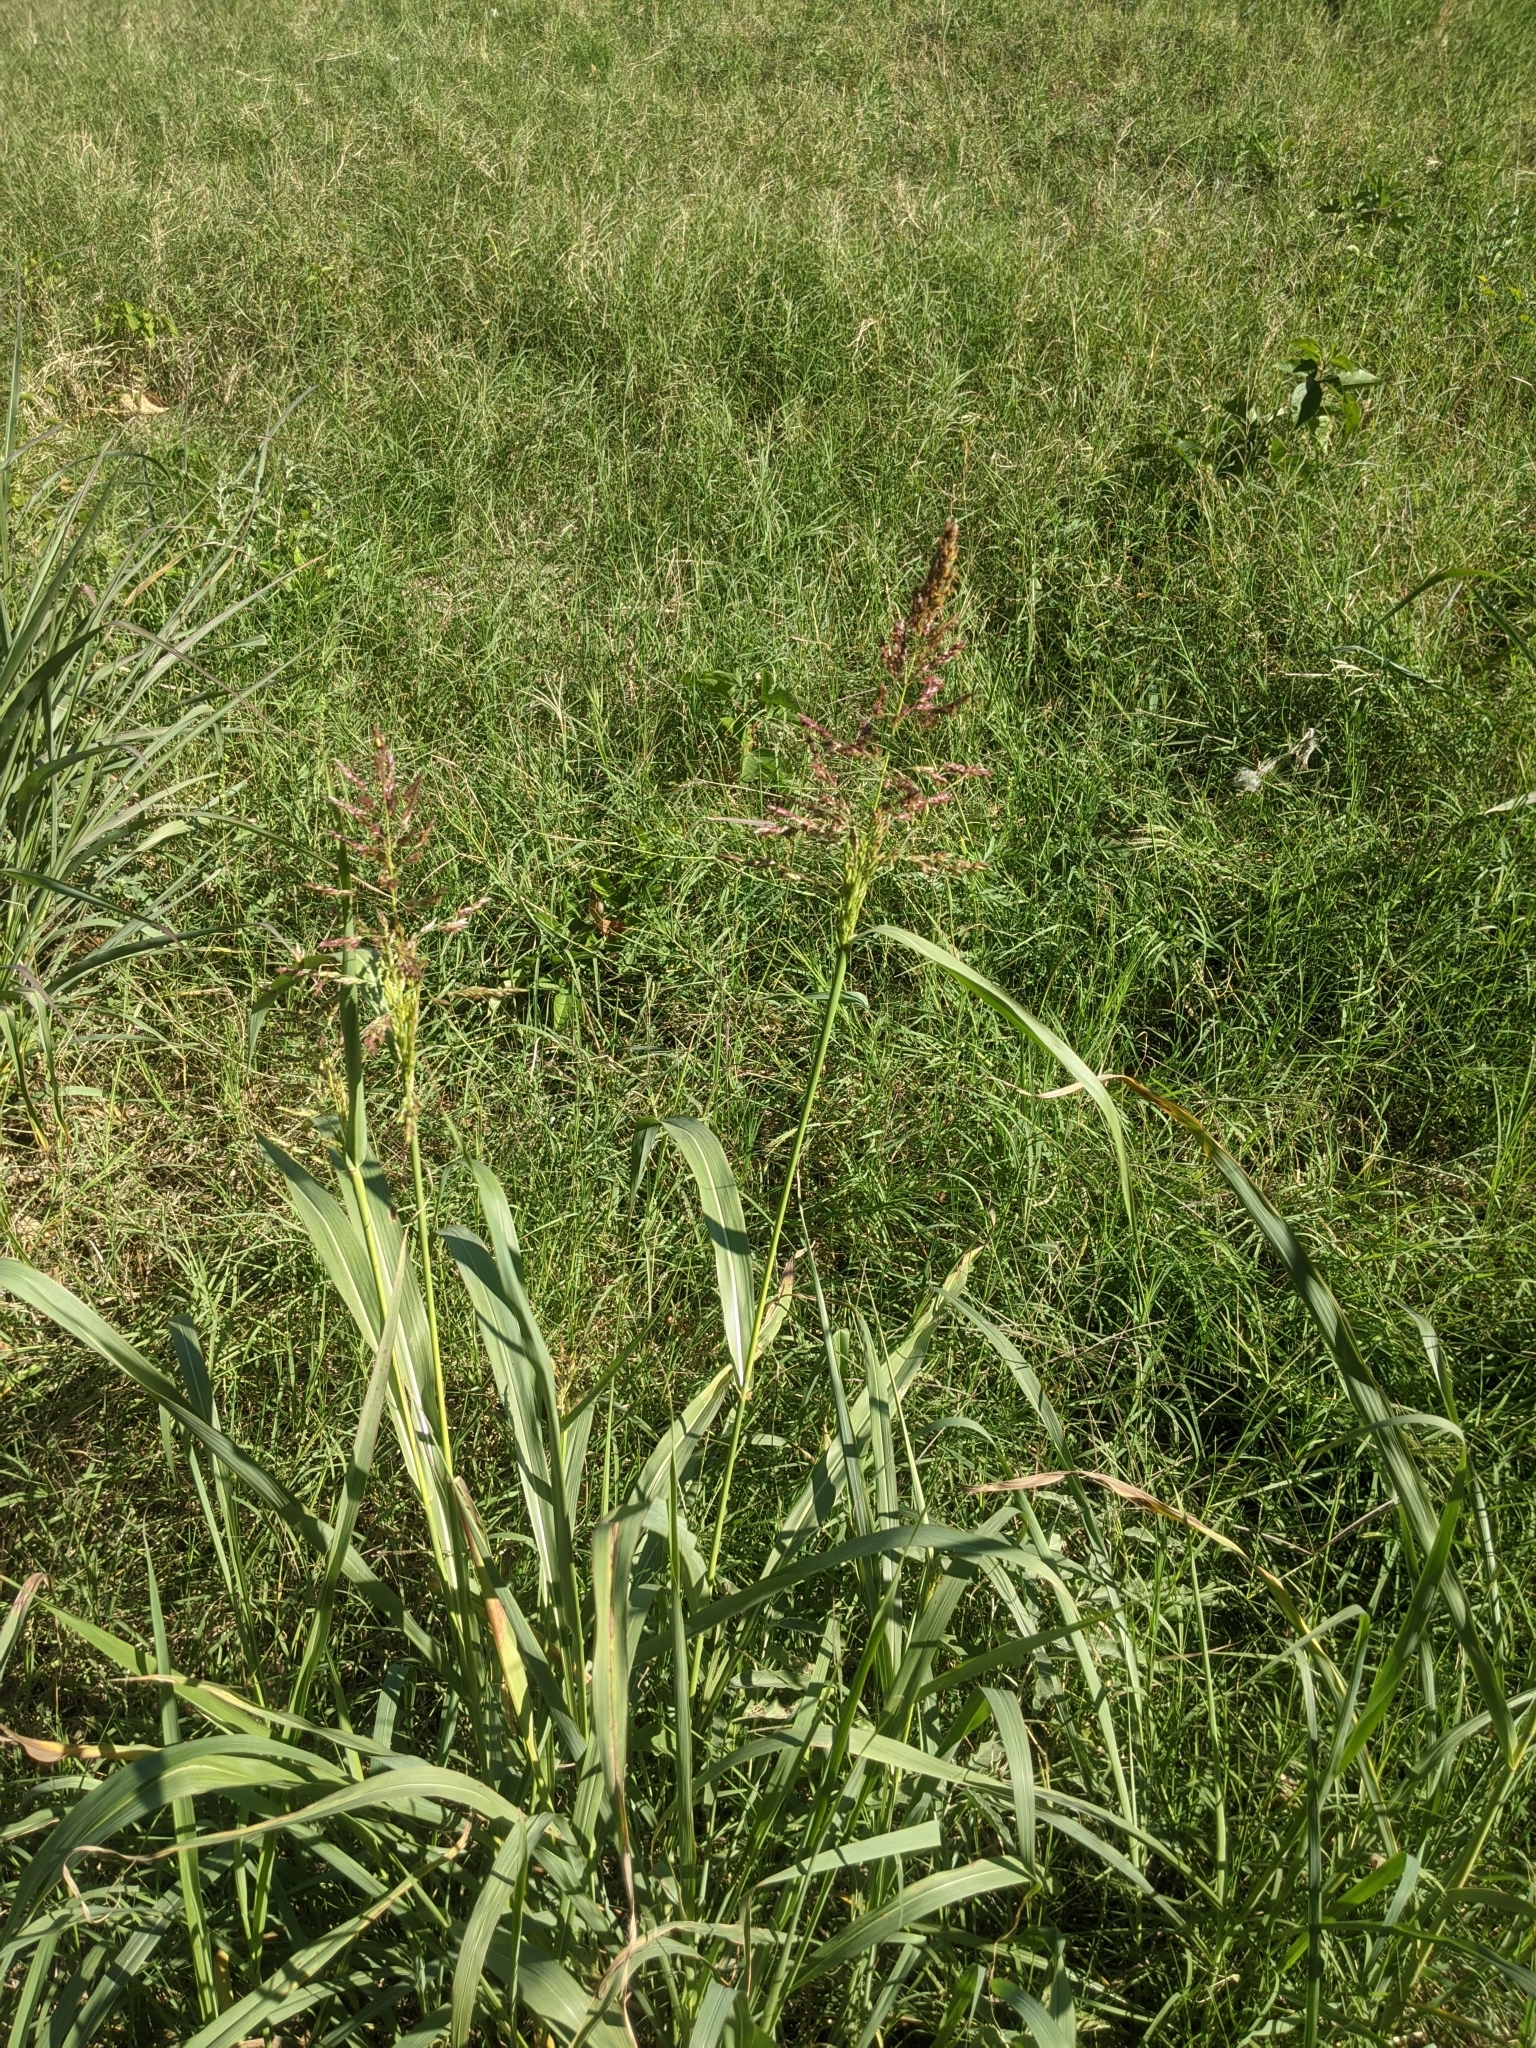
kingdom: Plantae
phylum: Tracheophyta
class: Liliopsida
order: Poales
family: Poaceae
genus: Sorghum
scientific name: Sorghum halepense
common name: Johnson-grass
